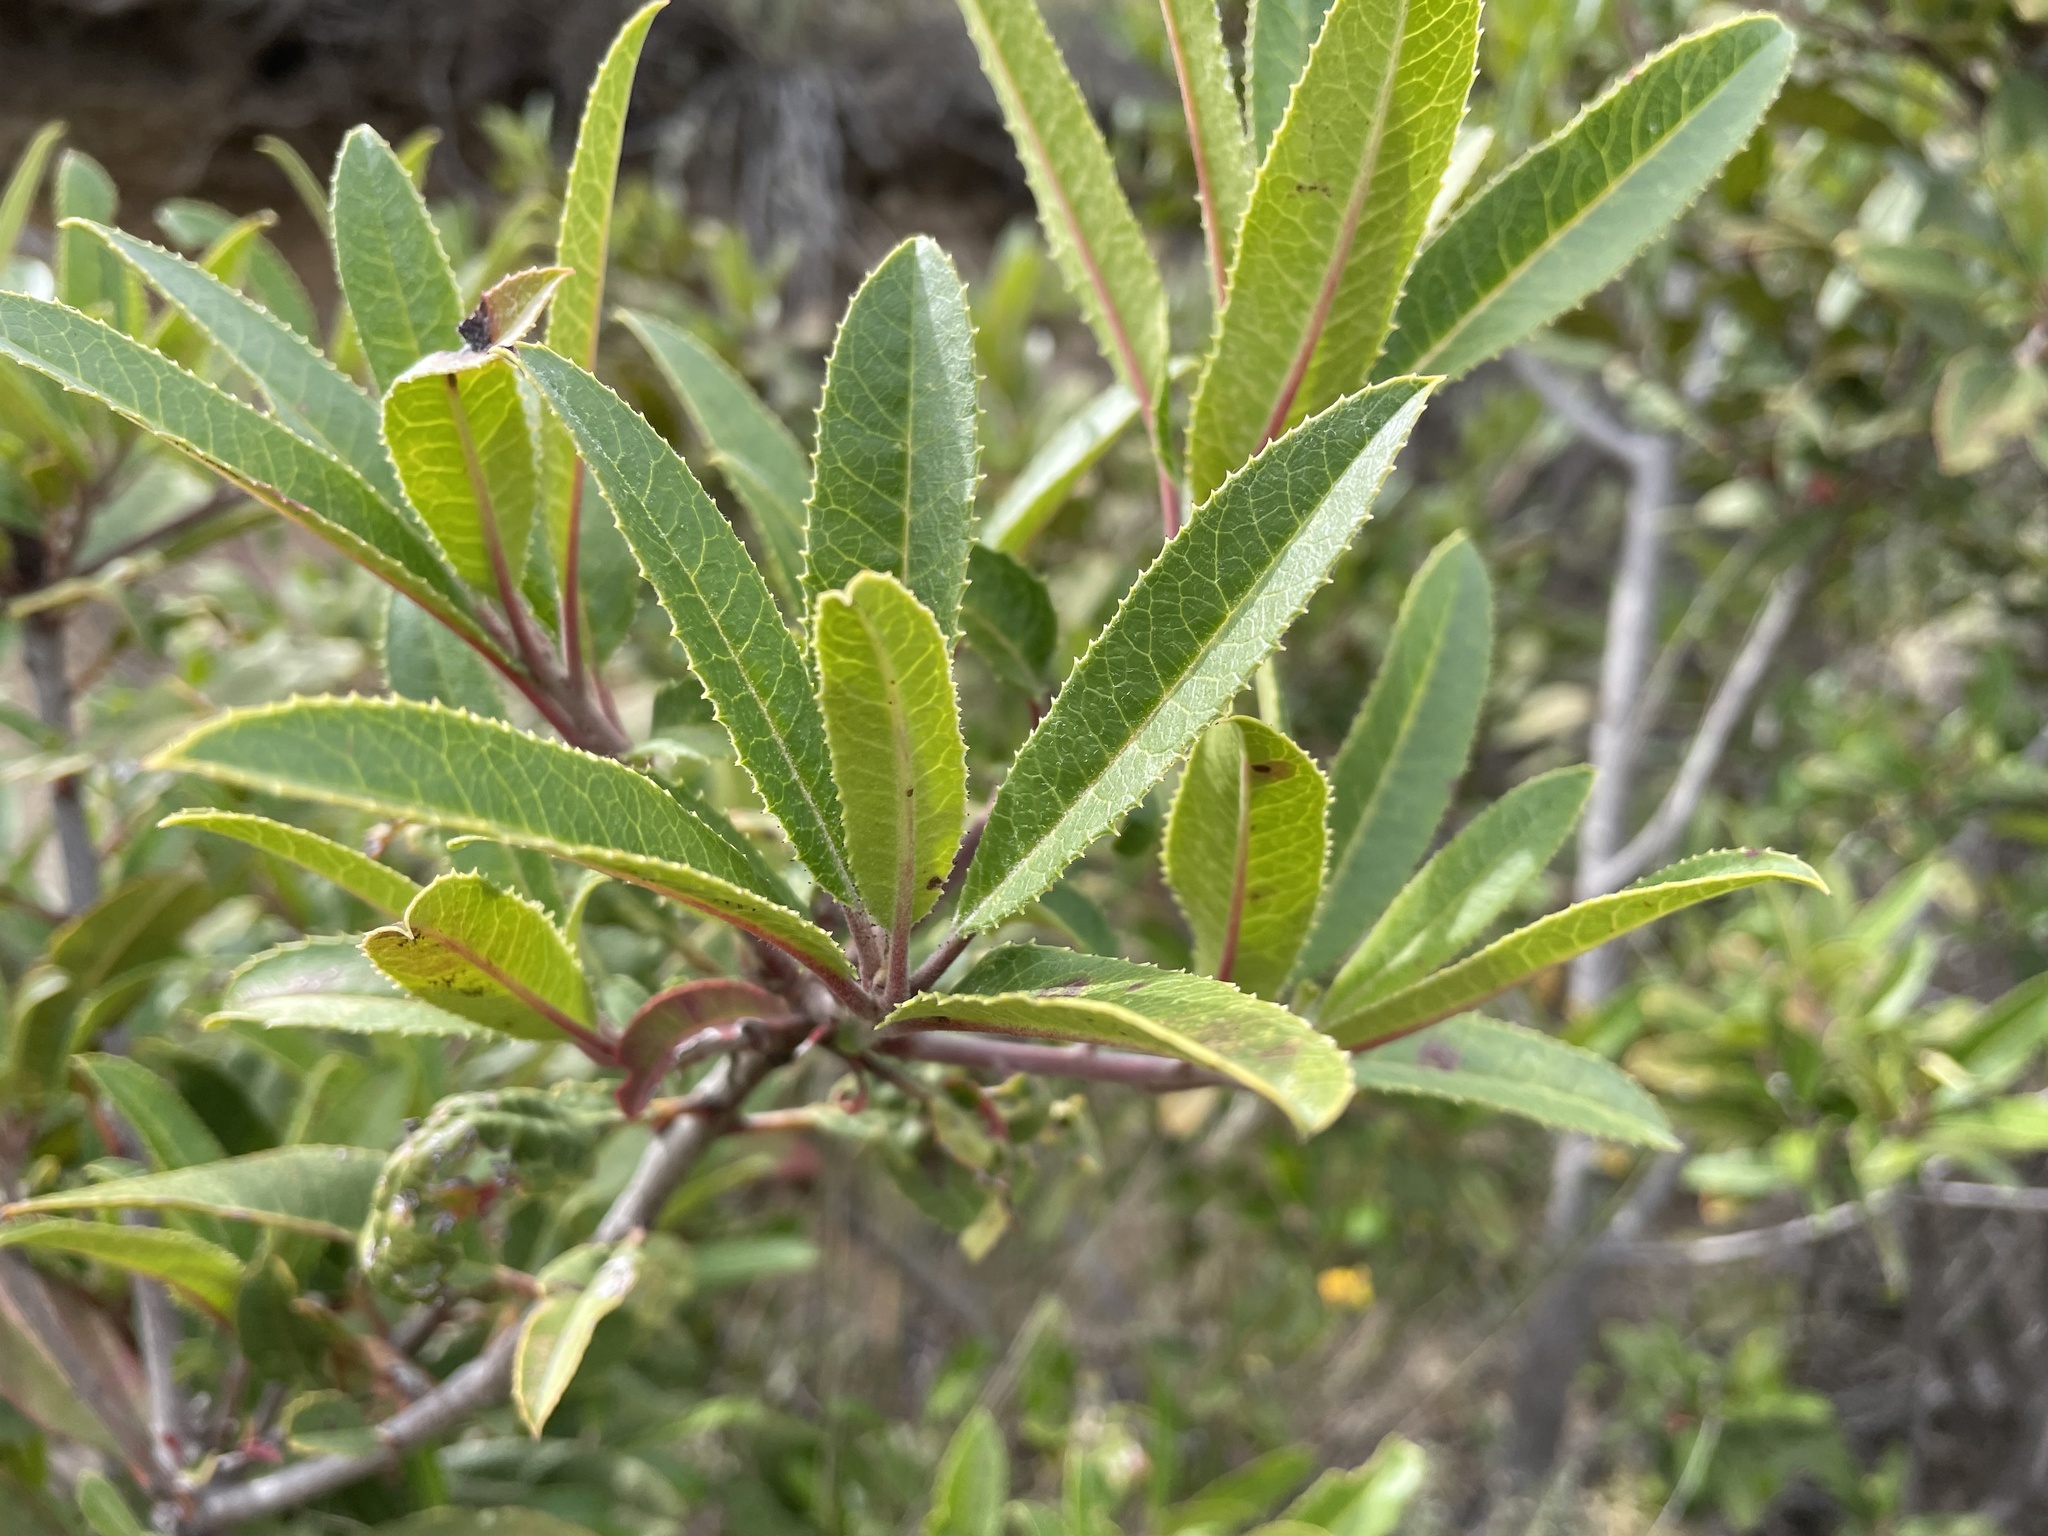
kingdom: Plantae
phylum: Tracheophyta
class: Magnoliopsida
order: Rosales
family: Rosaceae
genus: Heteromeles
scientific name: Heteromeles arbutifolia
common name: California-holly
